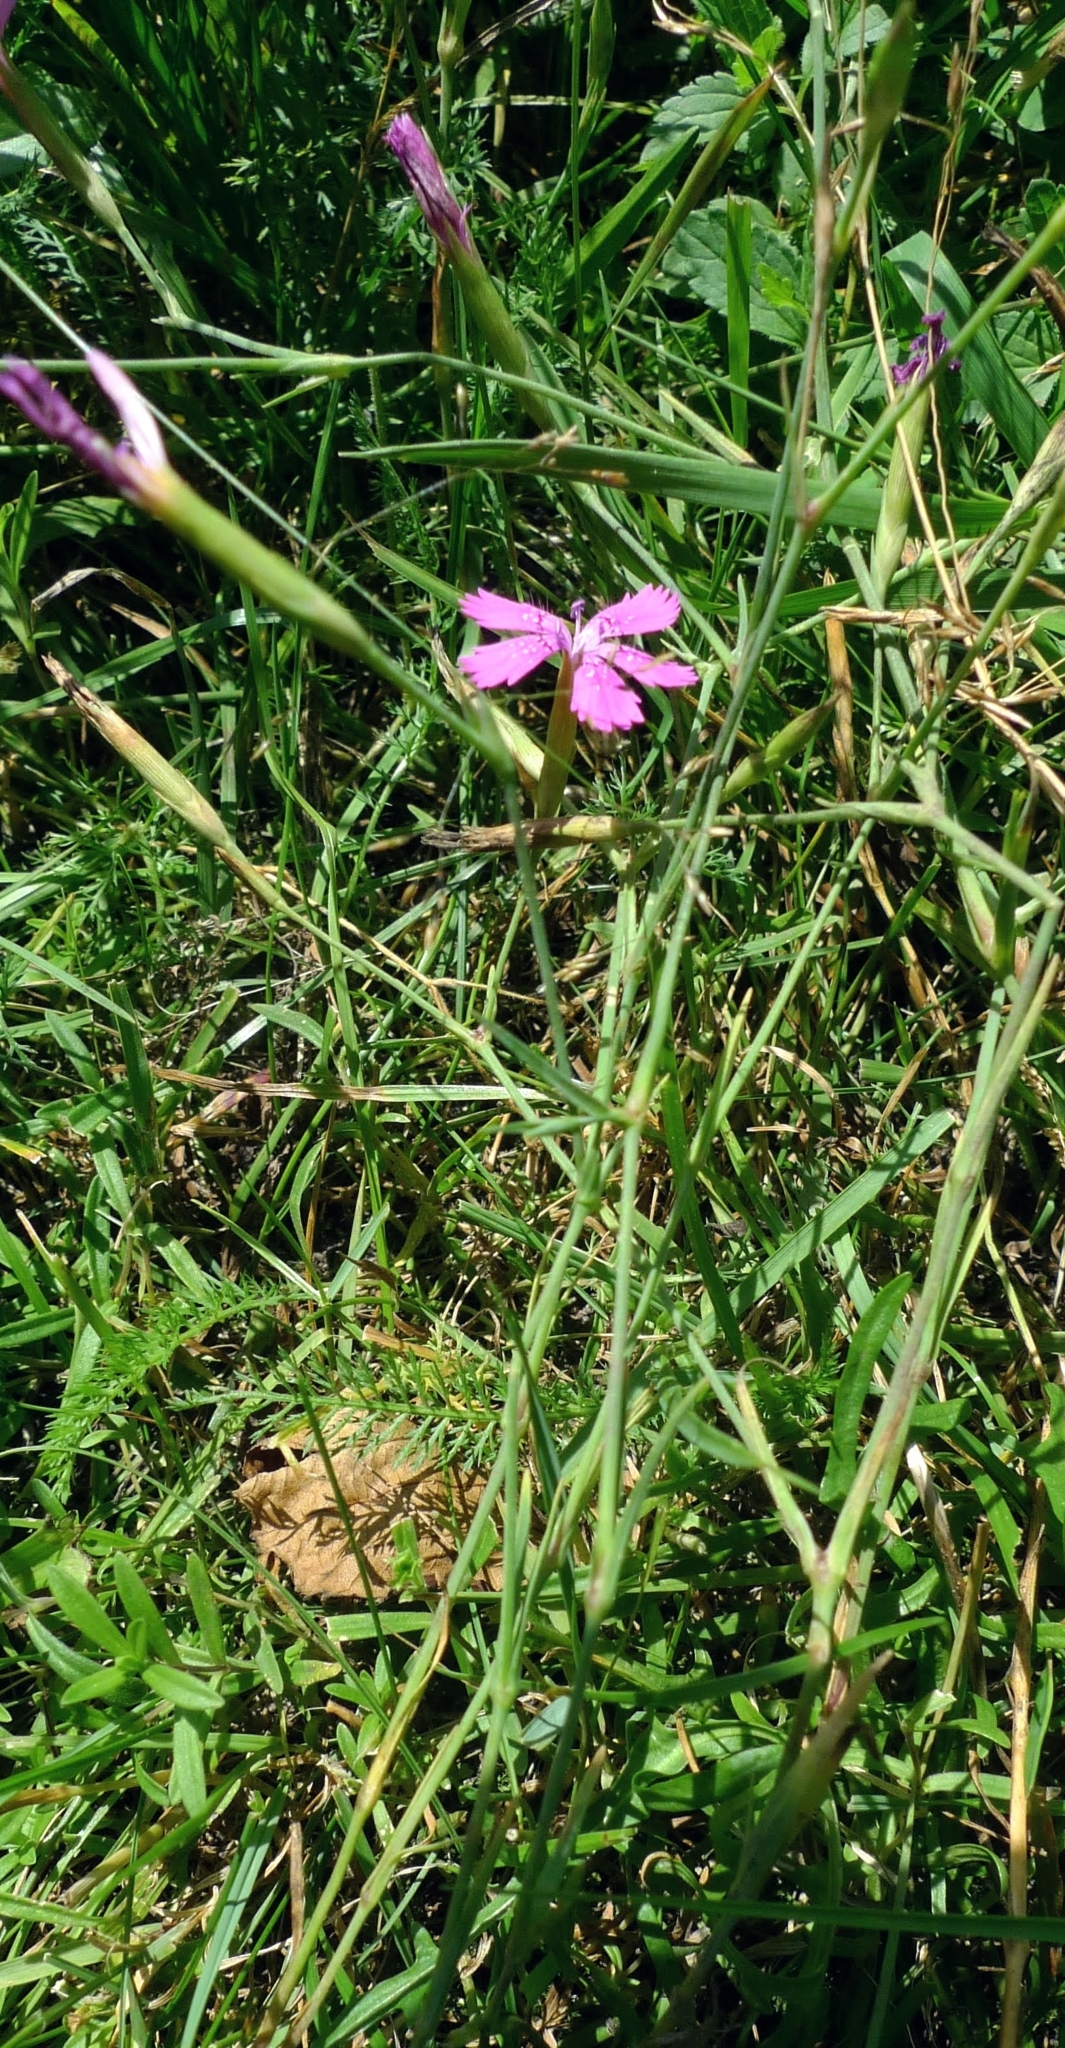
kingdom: Plantae
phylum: Tracheophyta
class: Magnoliopsida
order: Caryophyllales
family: Caryophyllaceae
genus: Dianthus
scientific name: Dianthus deltoides
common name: Maiden pink
